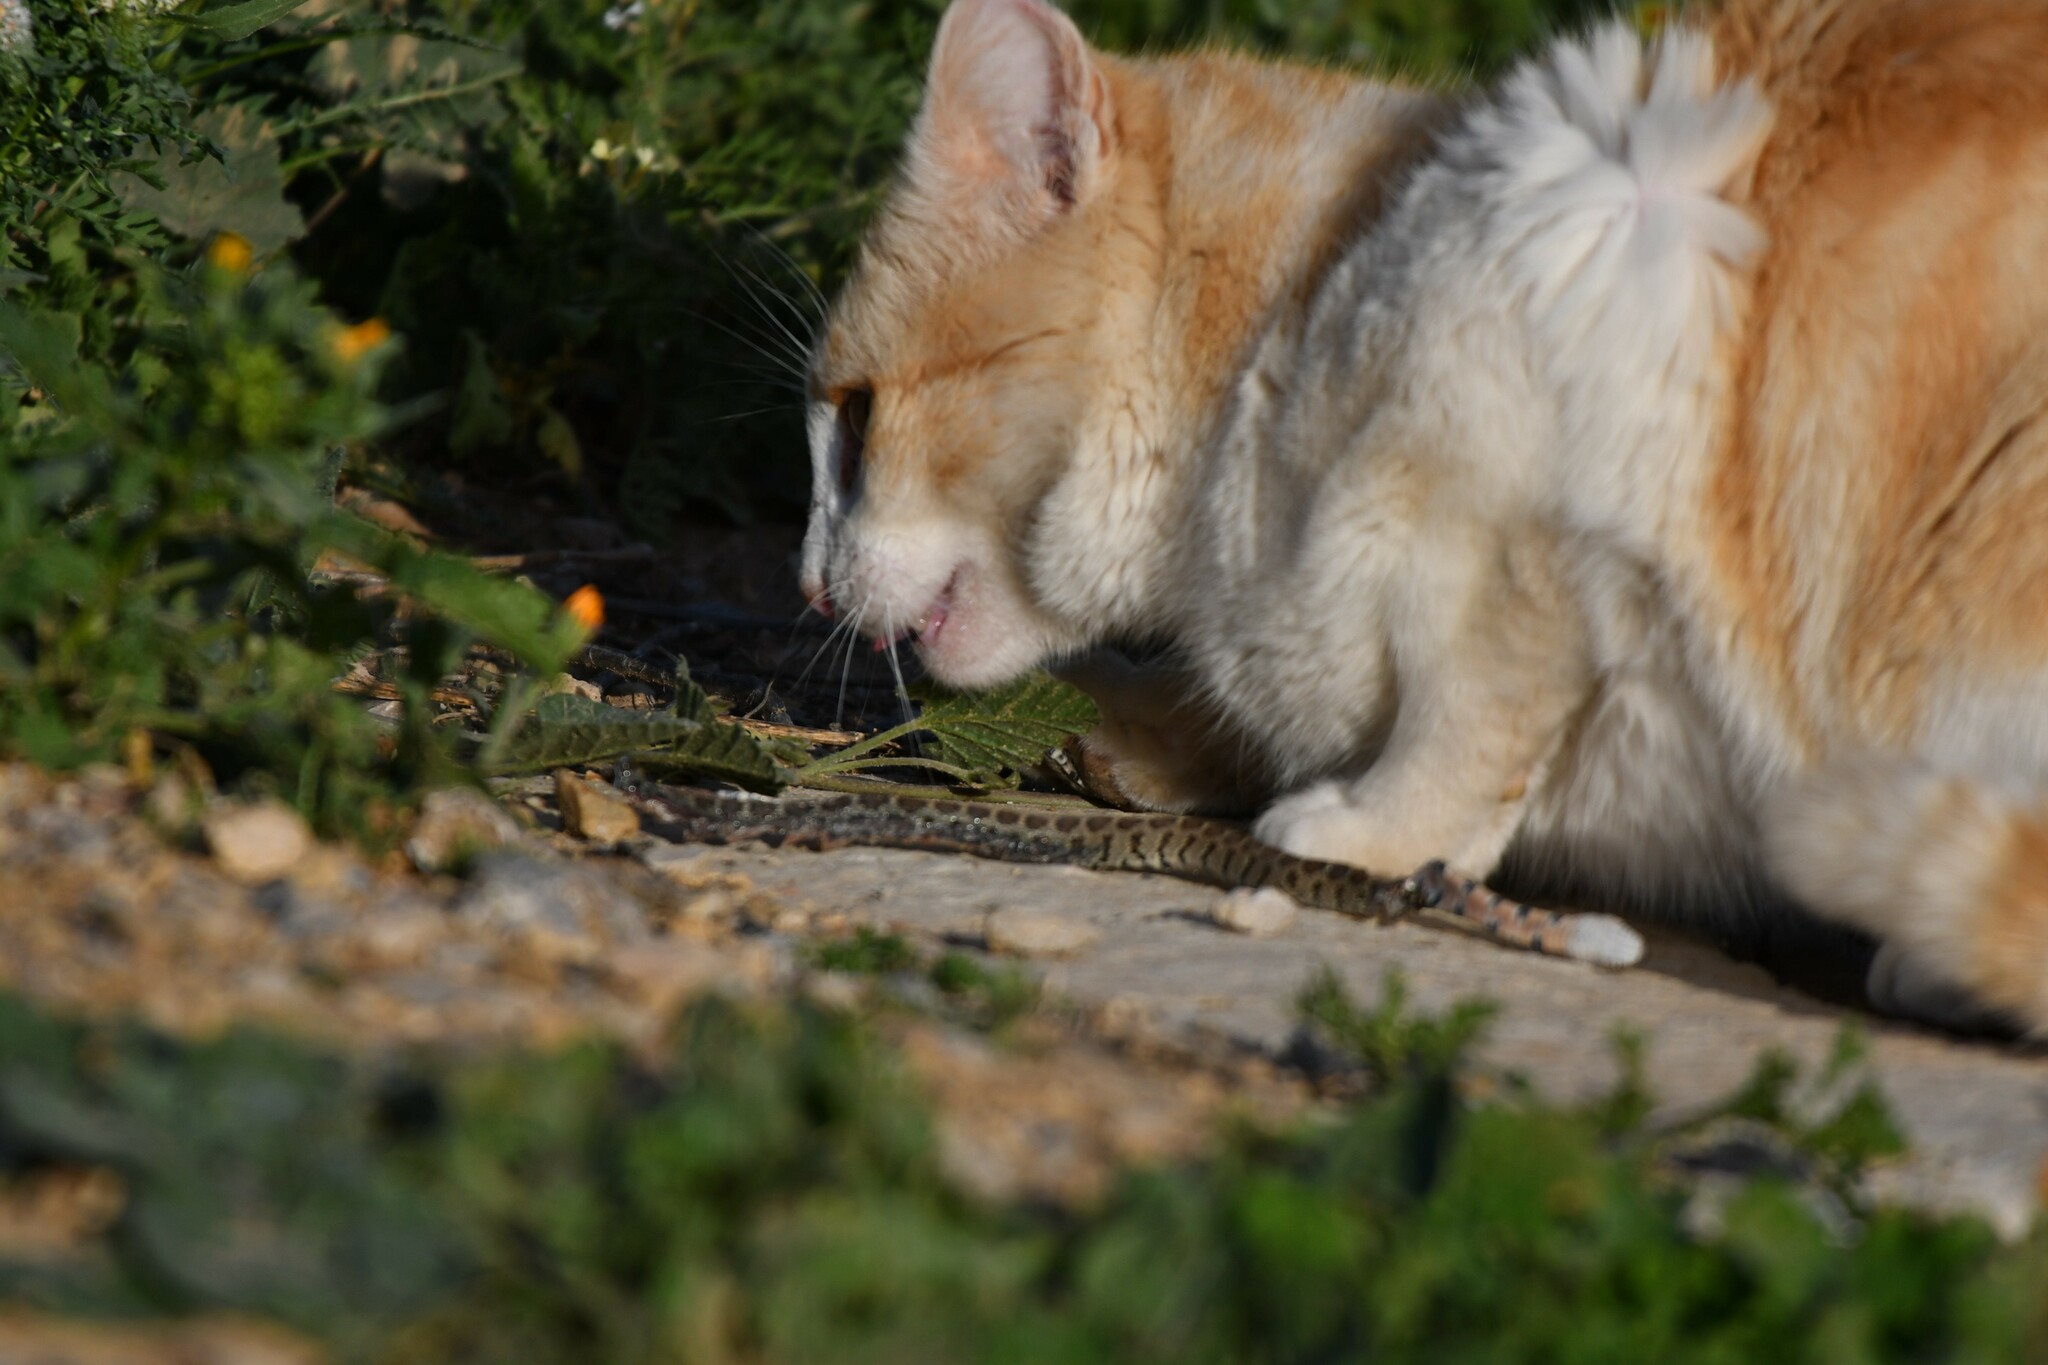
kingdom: Animalia
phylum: Chordata
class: Squamata
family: Colubridae
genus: Hemorrhois
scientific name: Hemorrhois hippocrepis
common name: Horseshoe whip snake
